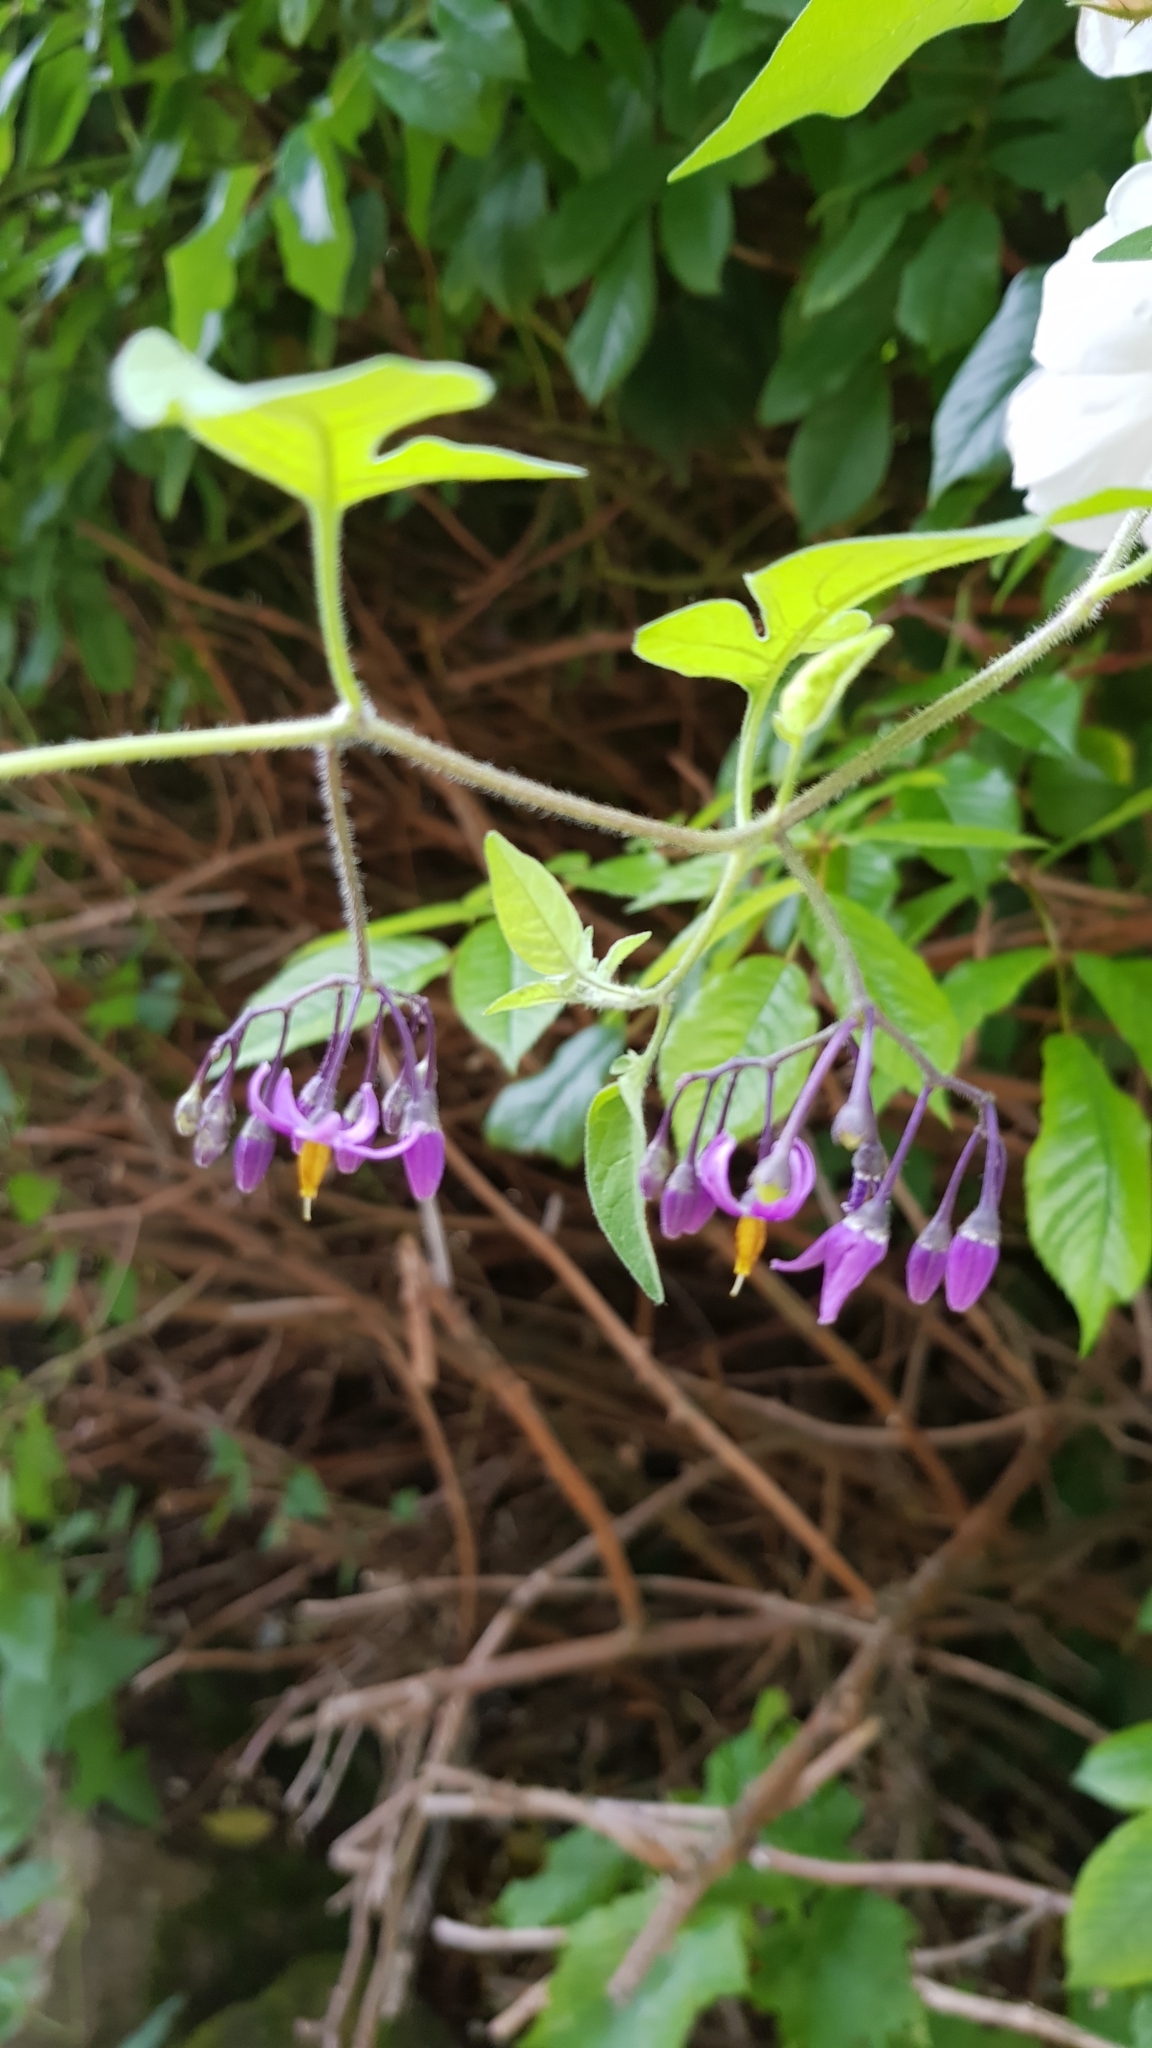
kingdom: Plantae
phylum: Tracheophyta
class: Magnoliopsida
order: Solanales
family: Solanaceae
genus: Solanum
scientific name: Solanum dulcamara
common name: Climbing nightshade
